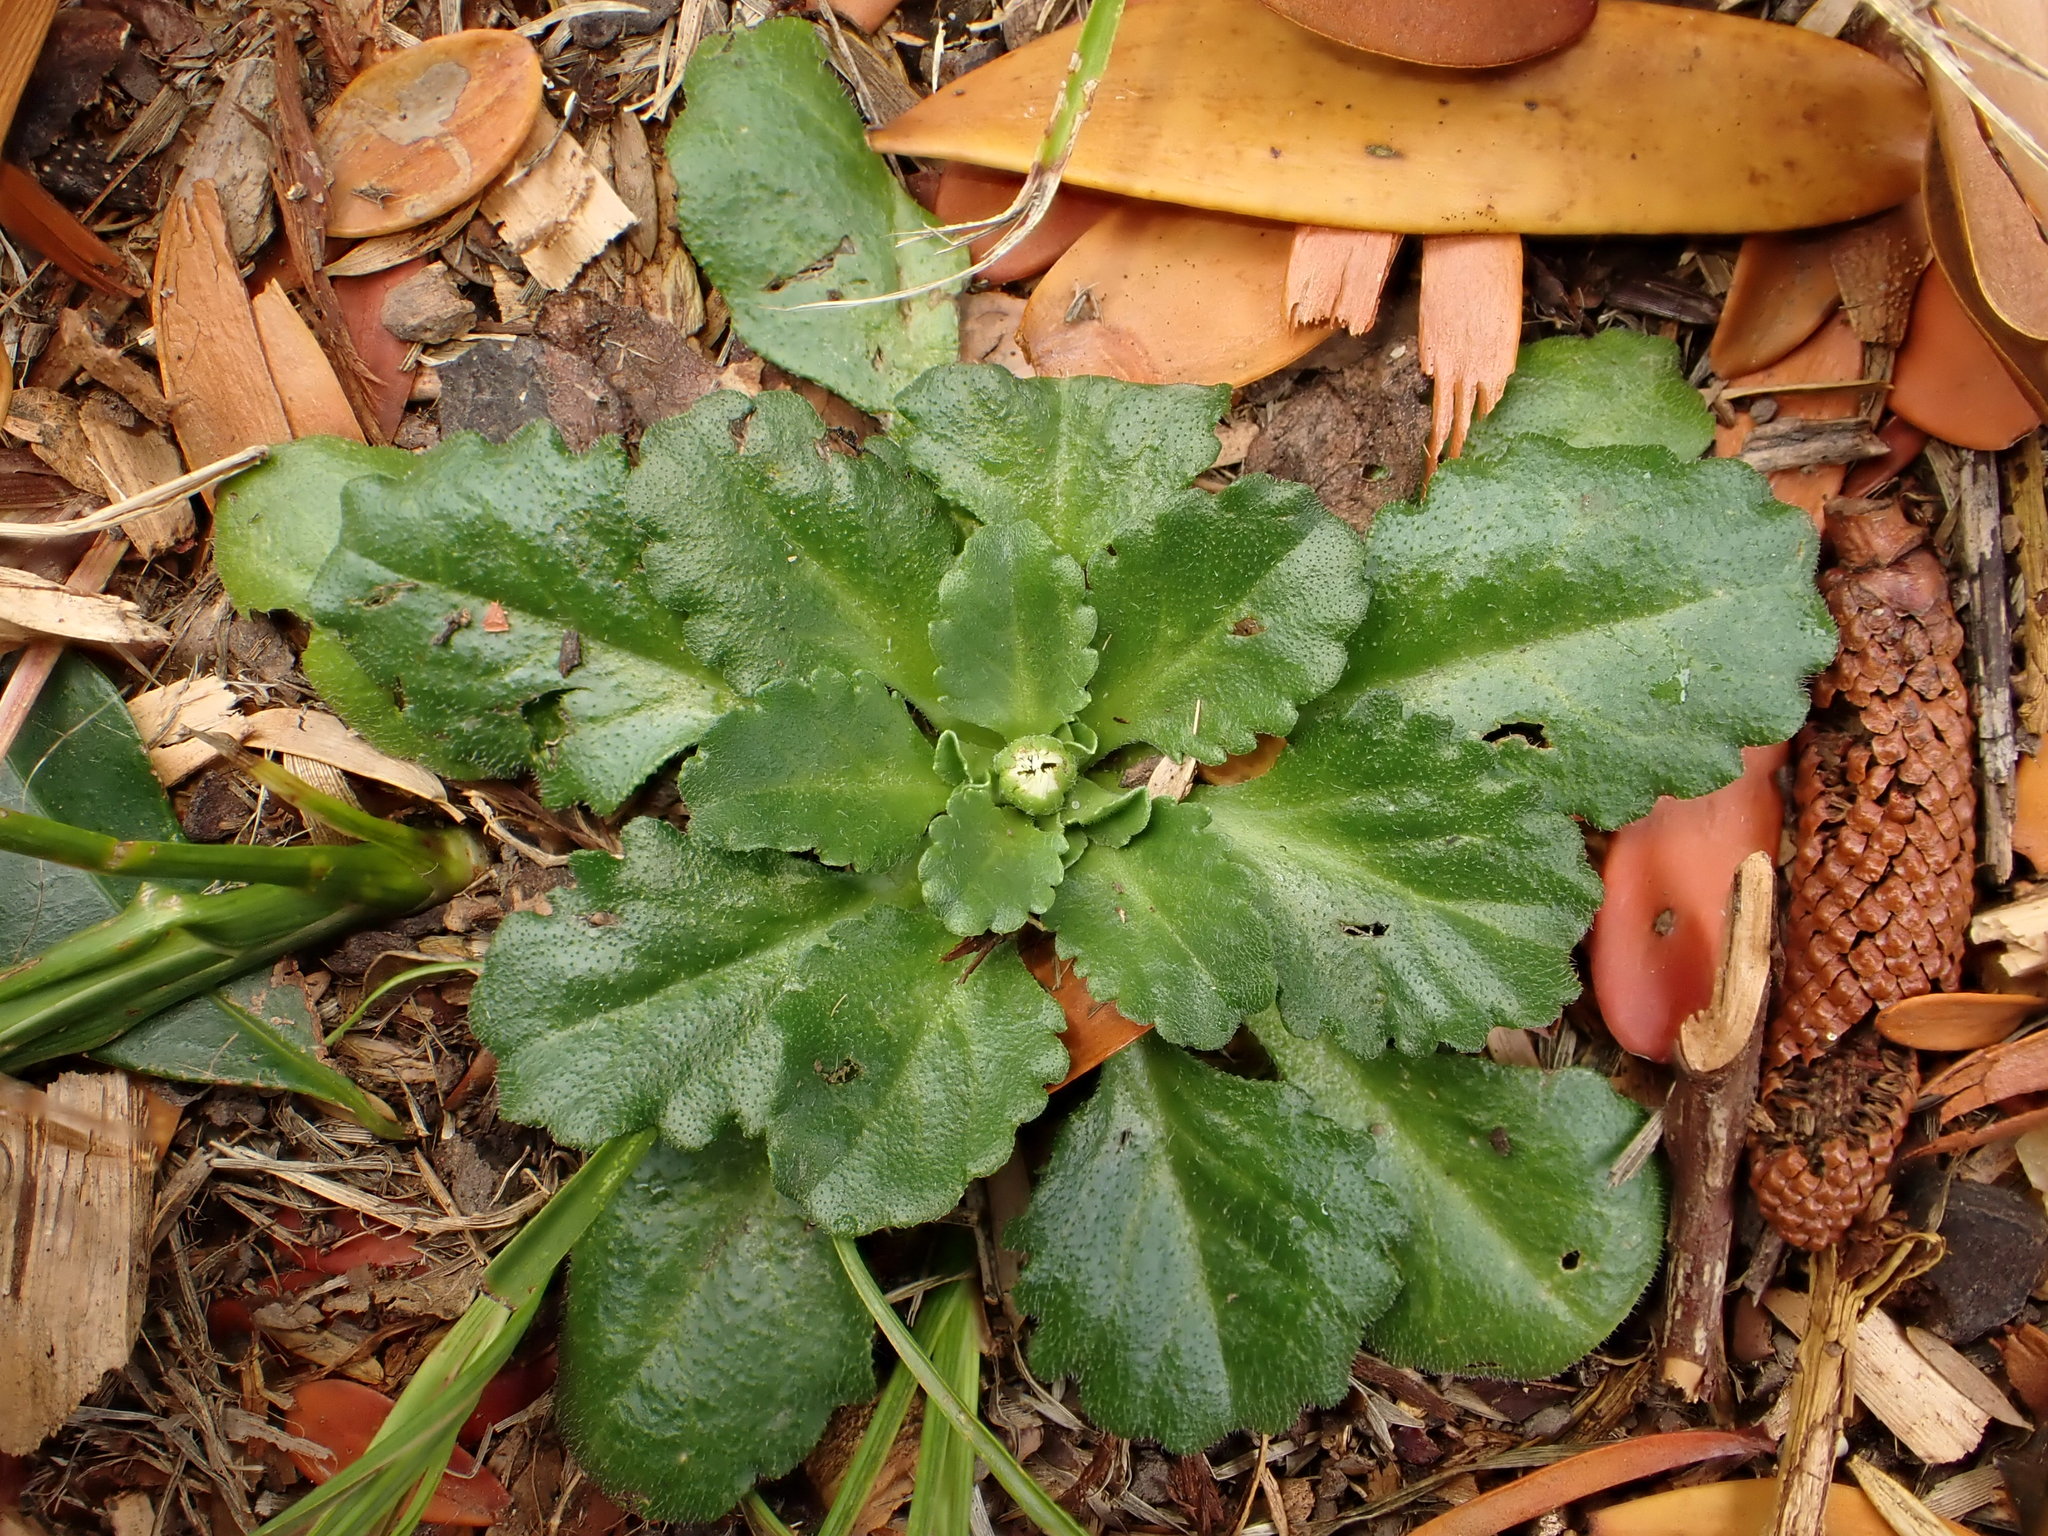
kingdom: Plantae
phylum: Tracheophyta
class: Magnoliopsida
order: Asterales
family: Asteraceae
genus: Bellis
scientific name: Bellis perennis
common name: Lawndaisy
